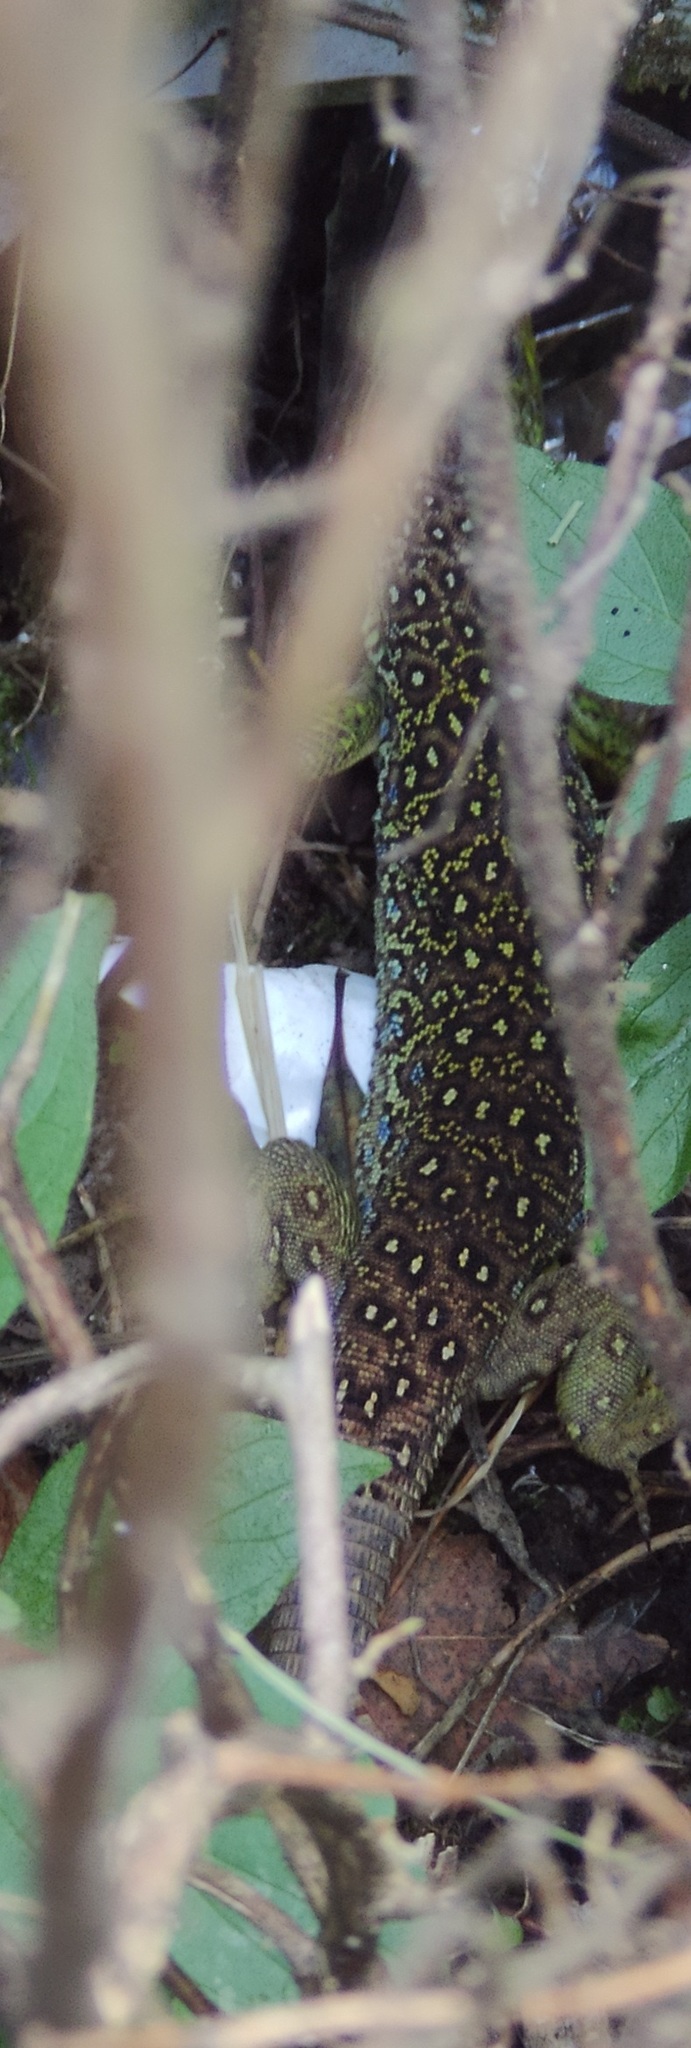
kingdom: Animalia
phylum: Chordata
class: Squamata
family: Lacertidae
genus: Timon
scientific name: Timon lepidus
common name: Ocellated lizard
